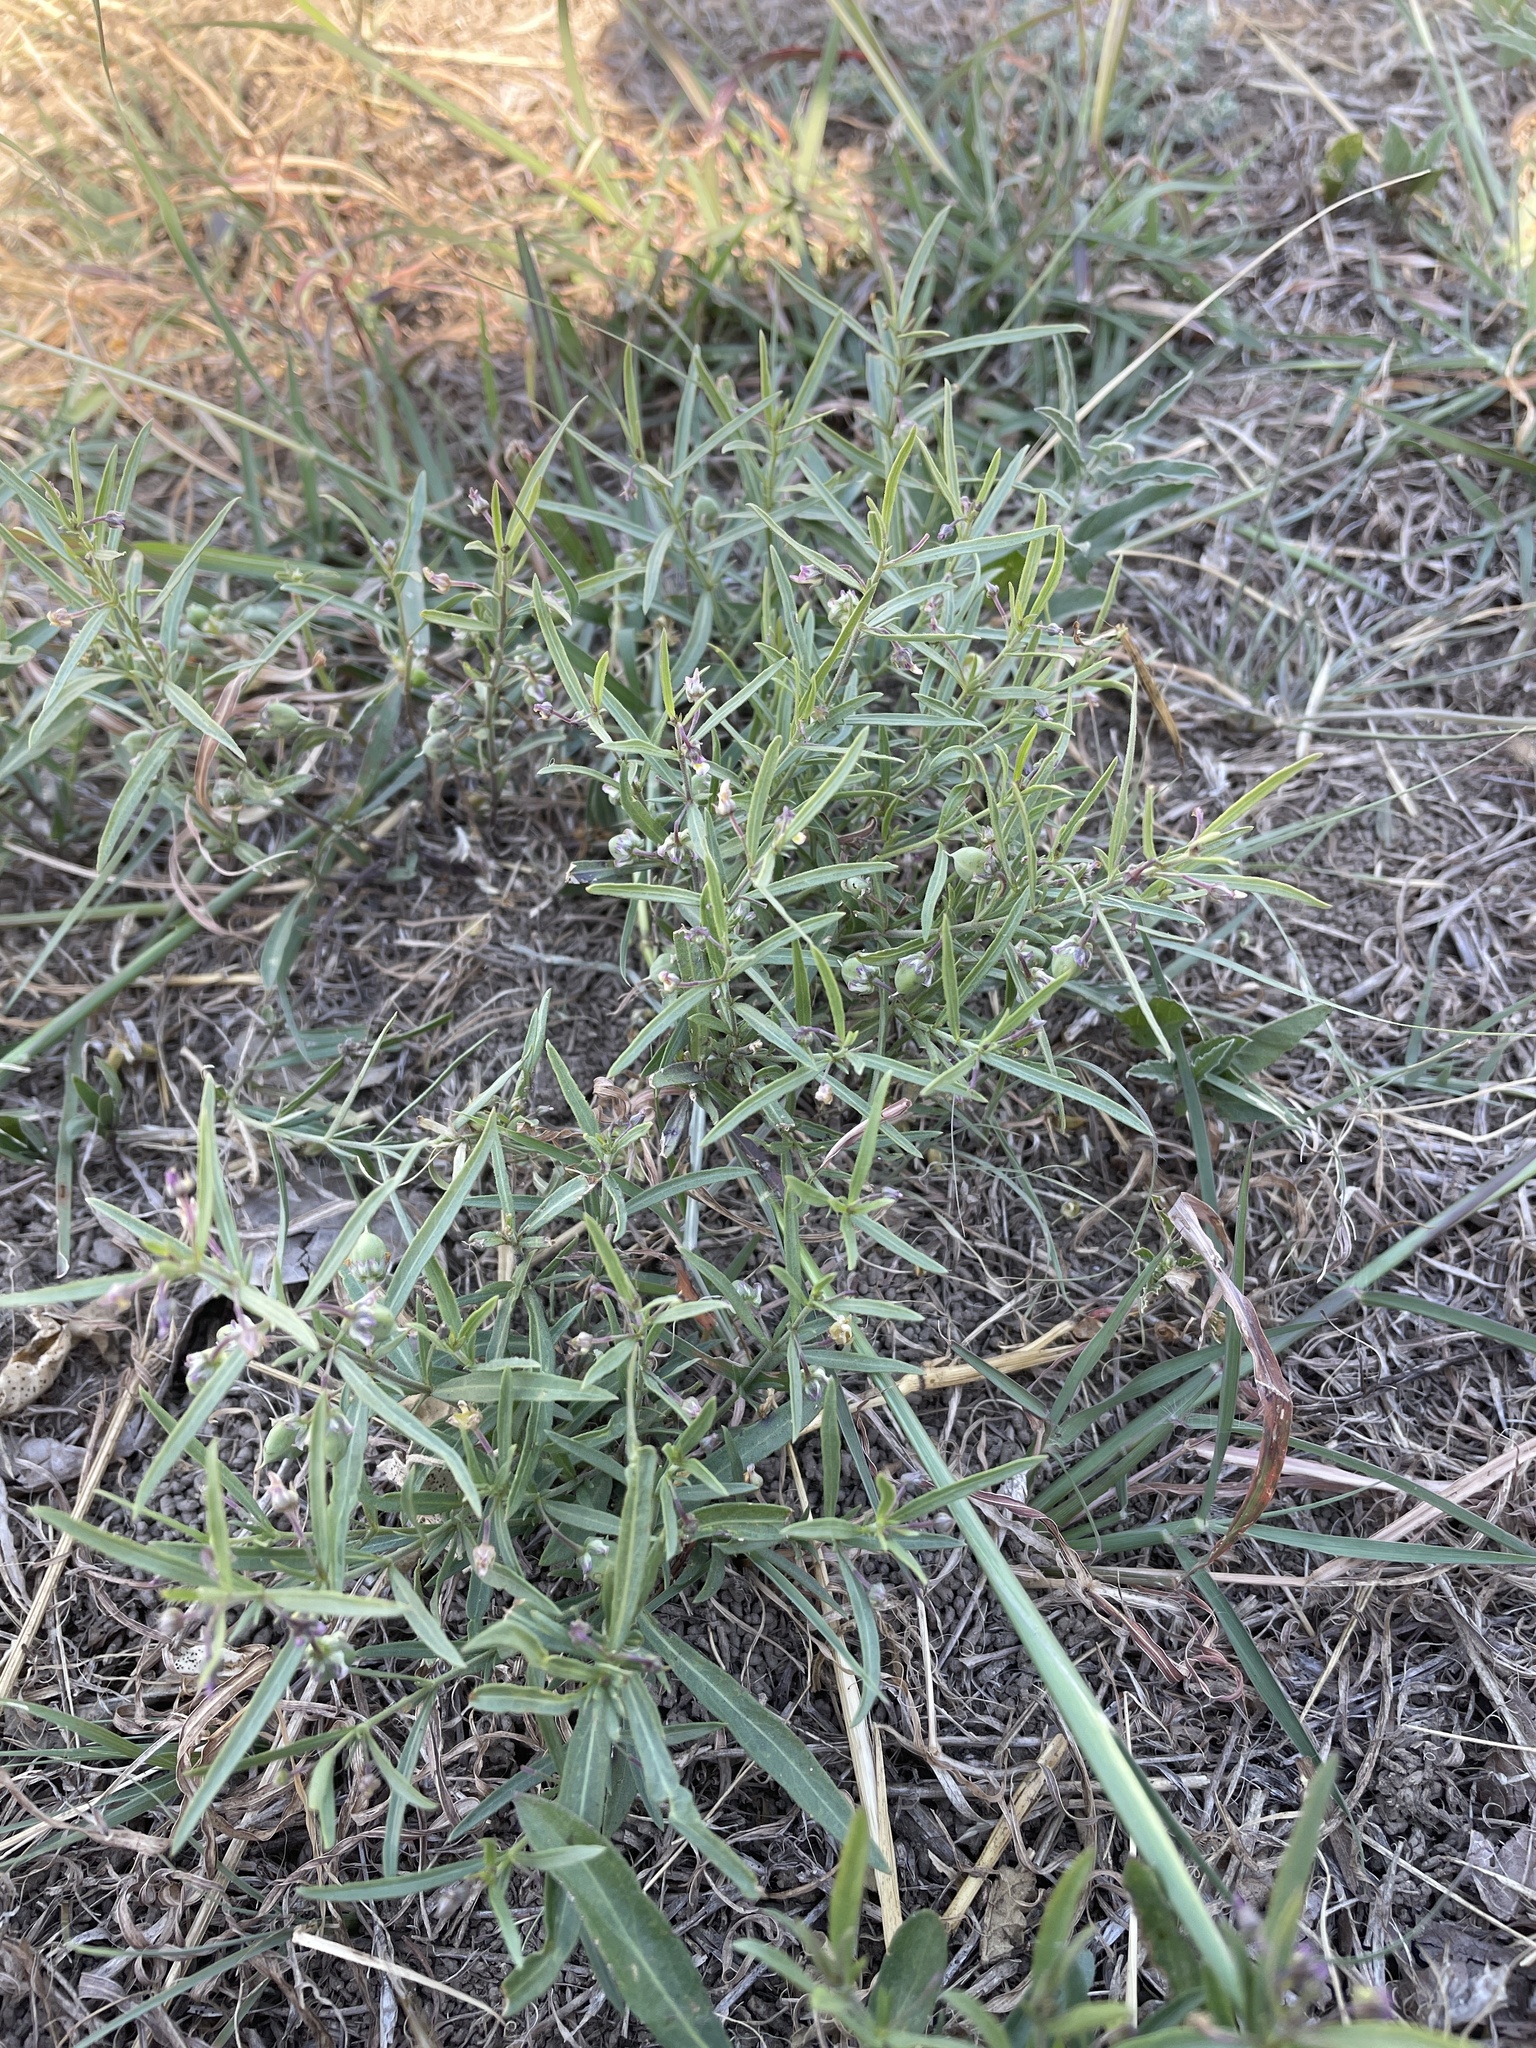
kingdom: Plantae
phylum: Tracheophyta
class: Magnoliopsida
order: Malpighiales
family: Violaceae
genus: Pombalia
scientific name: Pombalia verticillata
